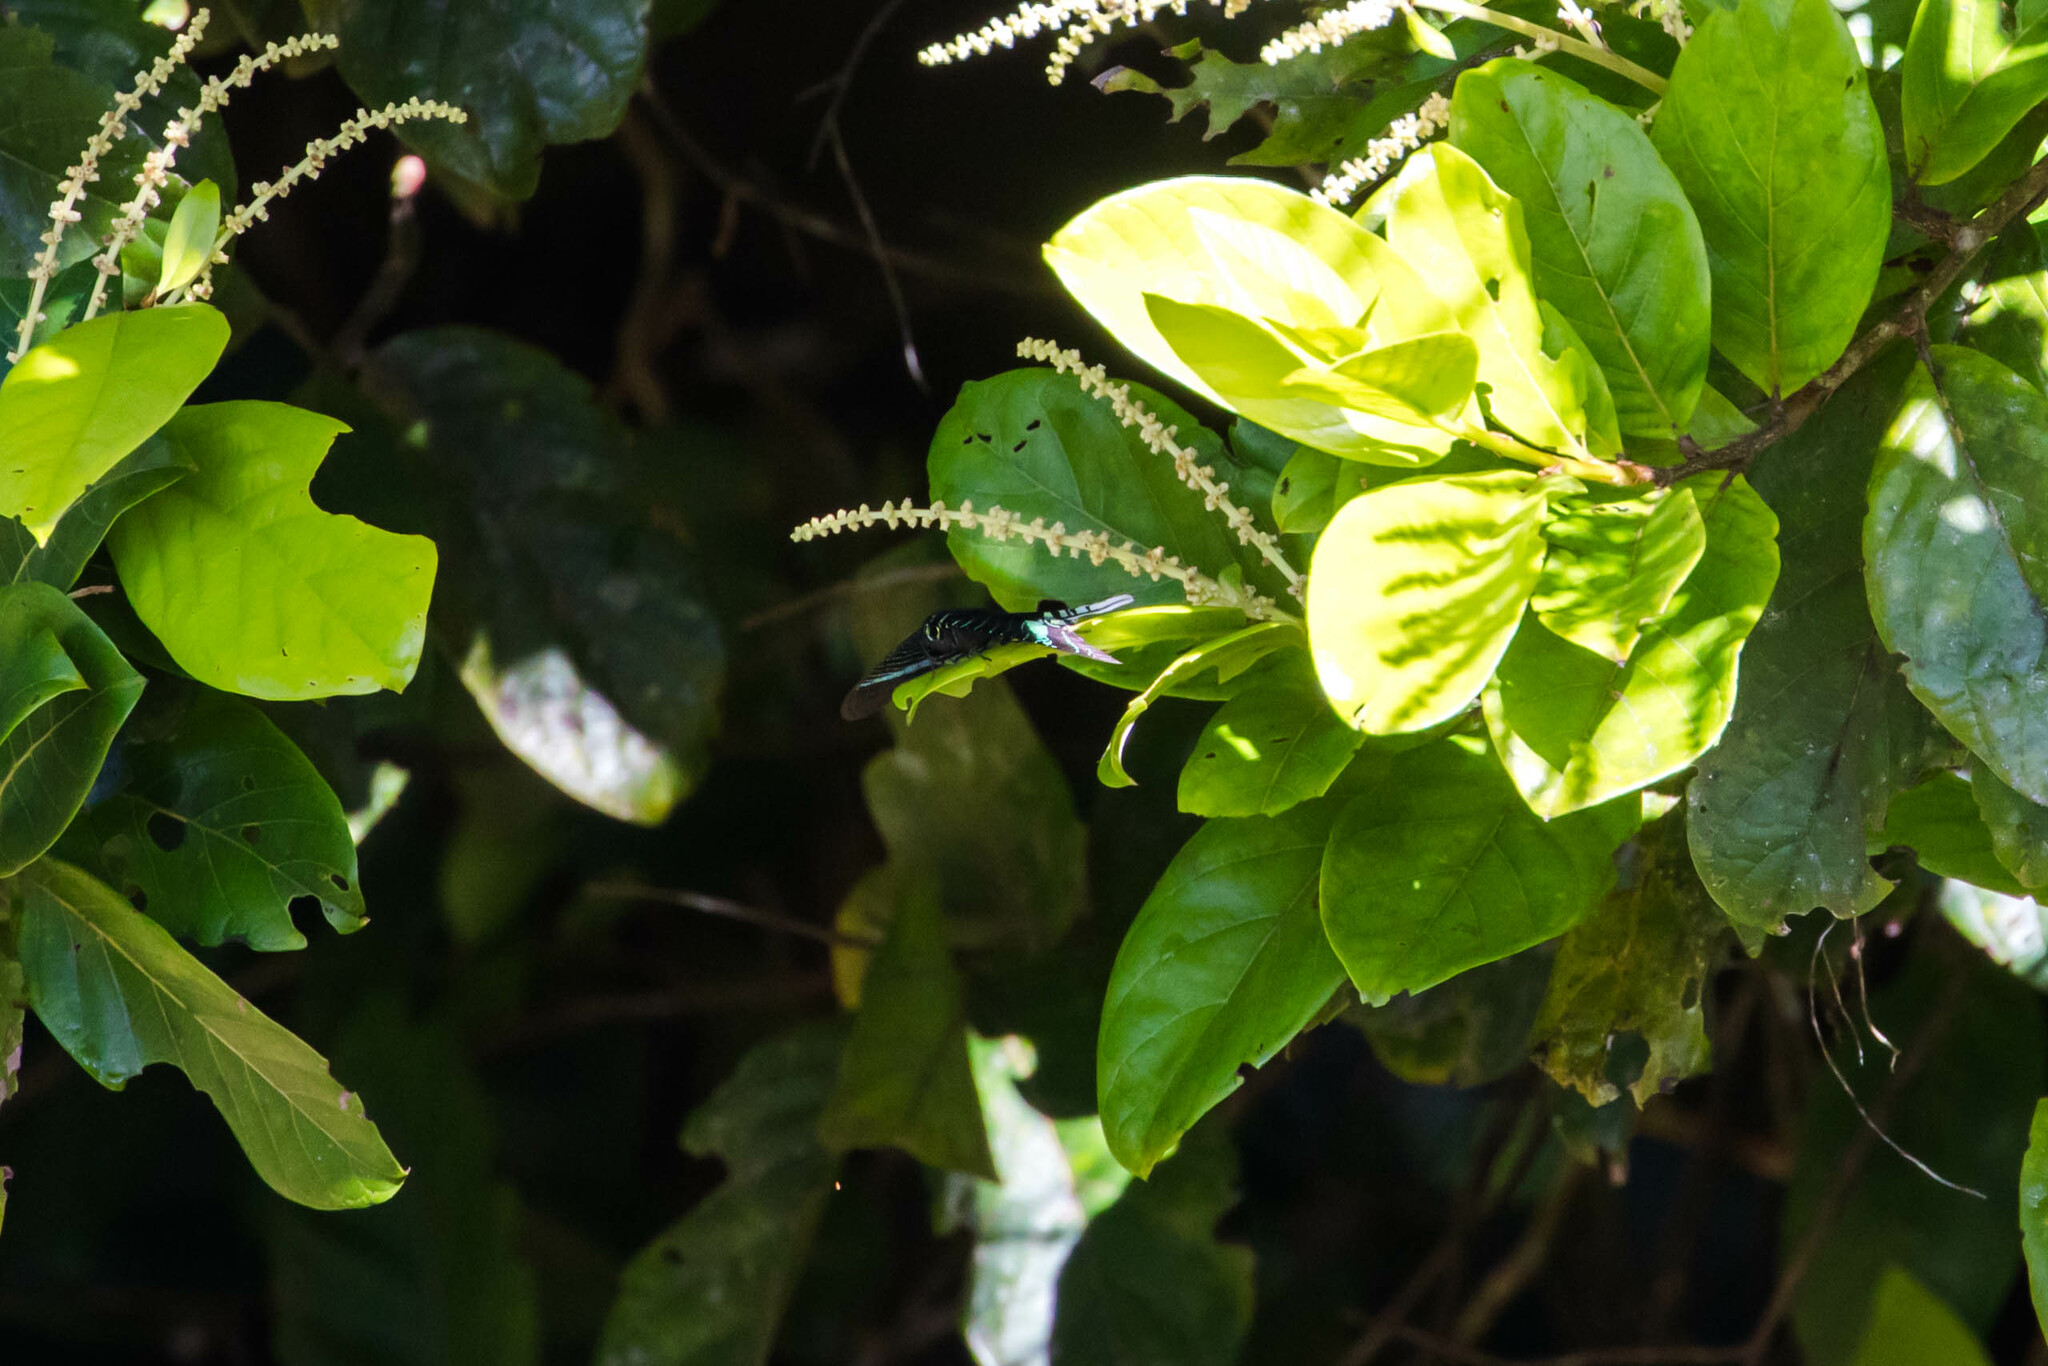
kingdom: Animalia
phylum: Arthropoda
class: Insecta
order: Lepidoptera
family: Uraniidae
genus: Urania
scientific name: Urania leilus
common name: Peacock moth
